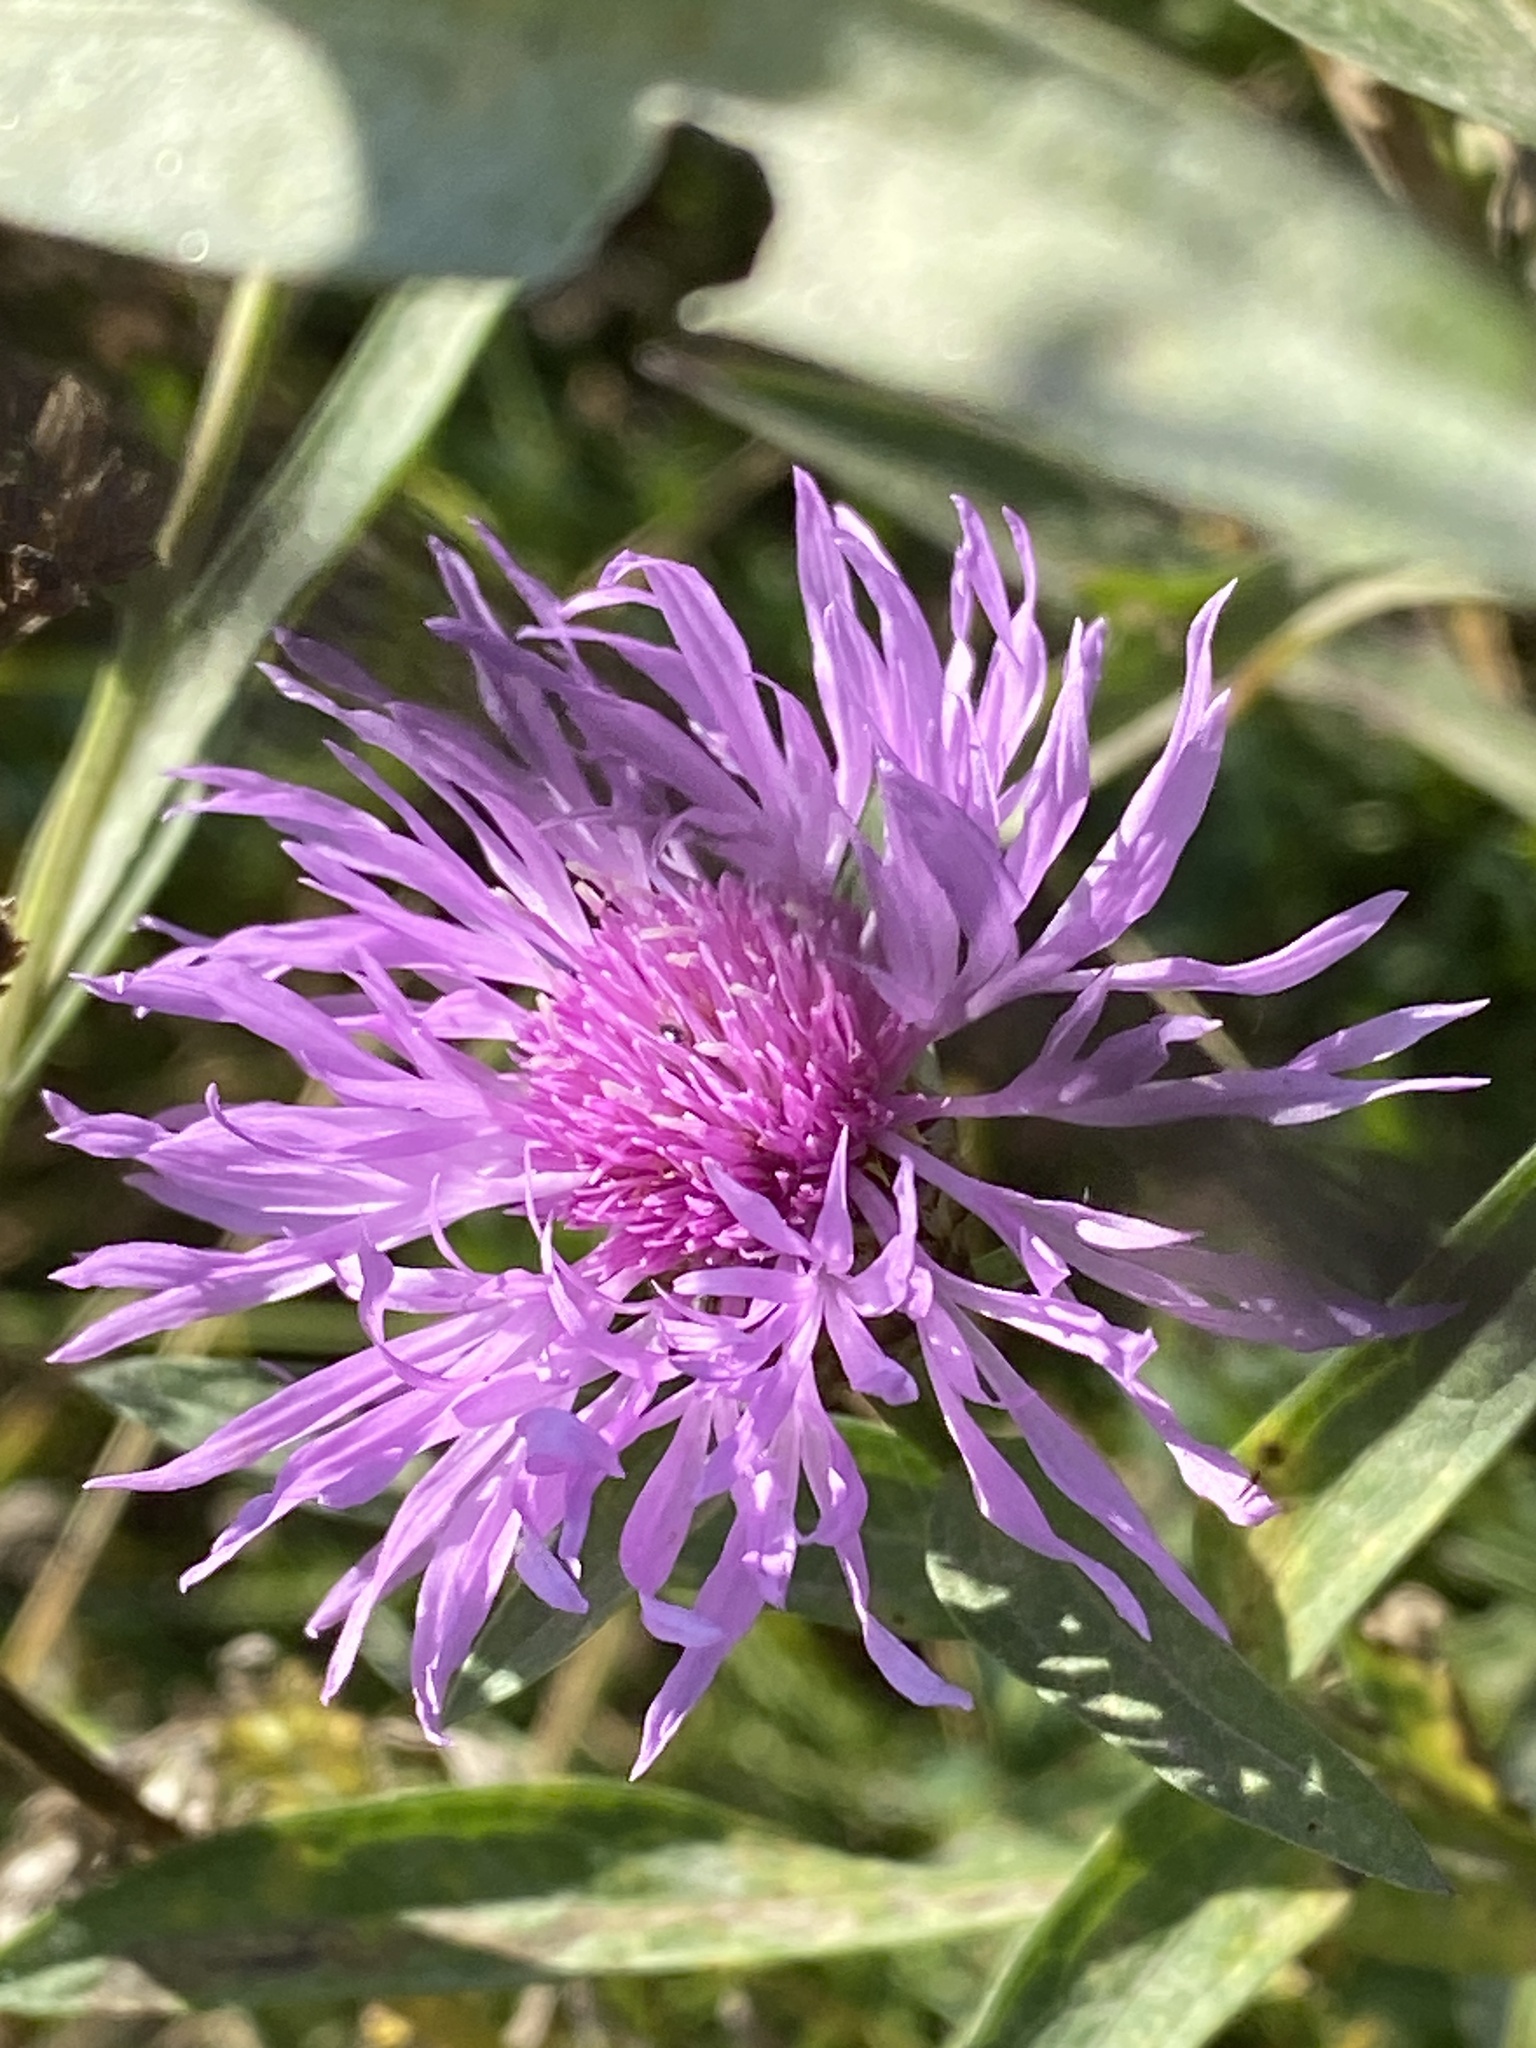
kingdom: Plantae
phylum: Tracheophyta
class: Magnoliopsida
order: Asterales
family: Asteraceae
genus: Centaurea
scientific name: Centaurea jacea
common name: Brown knapweed
